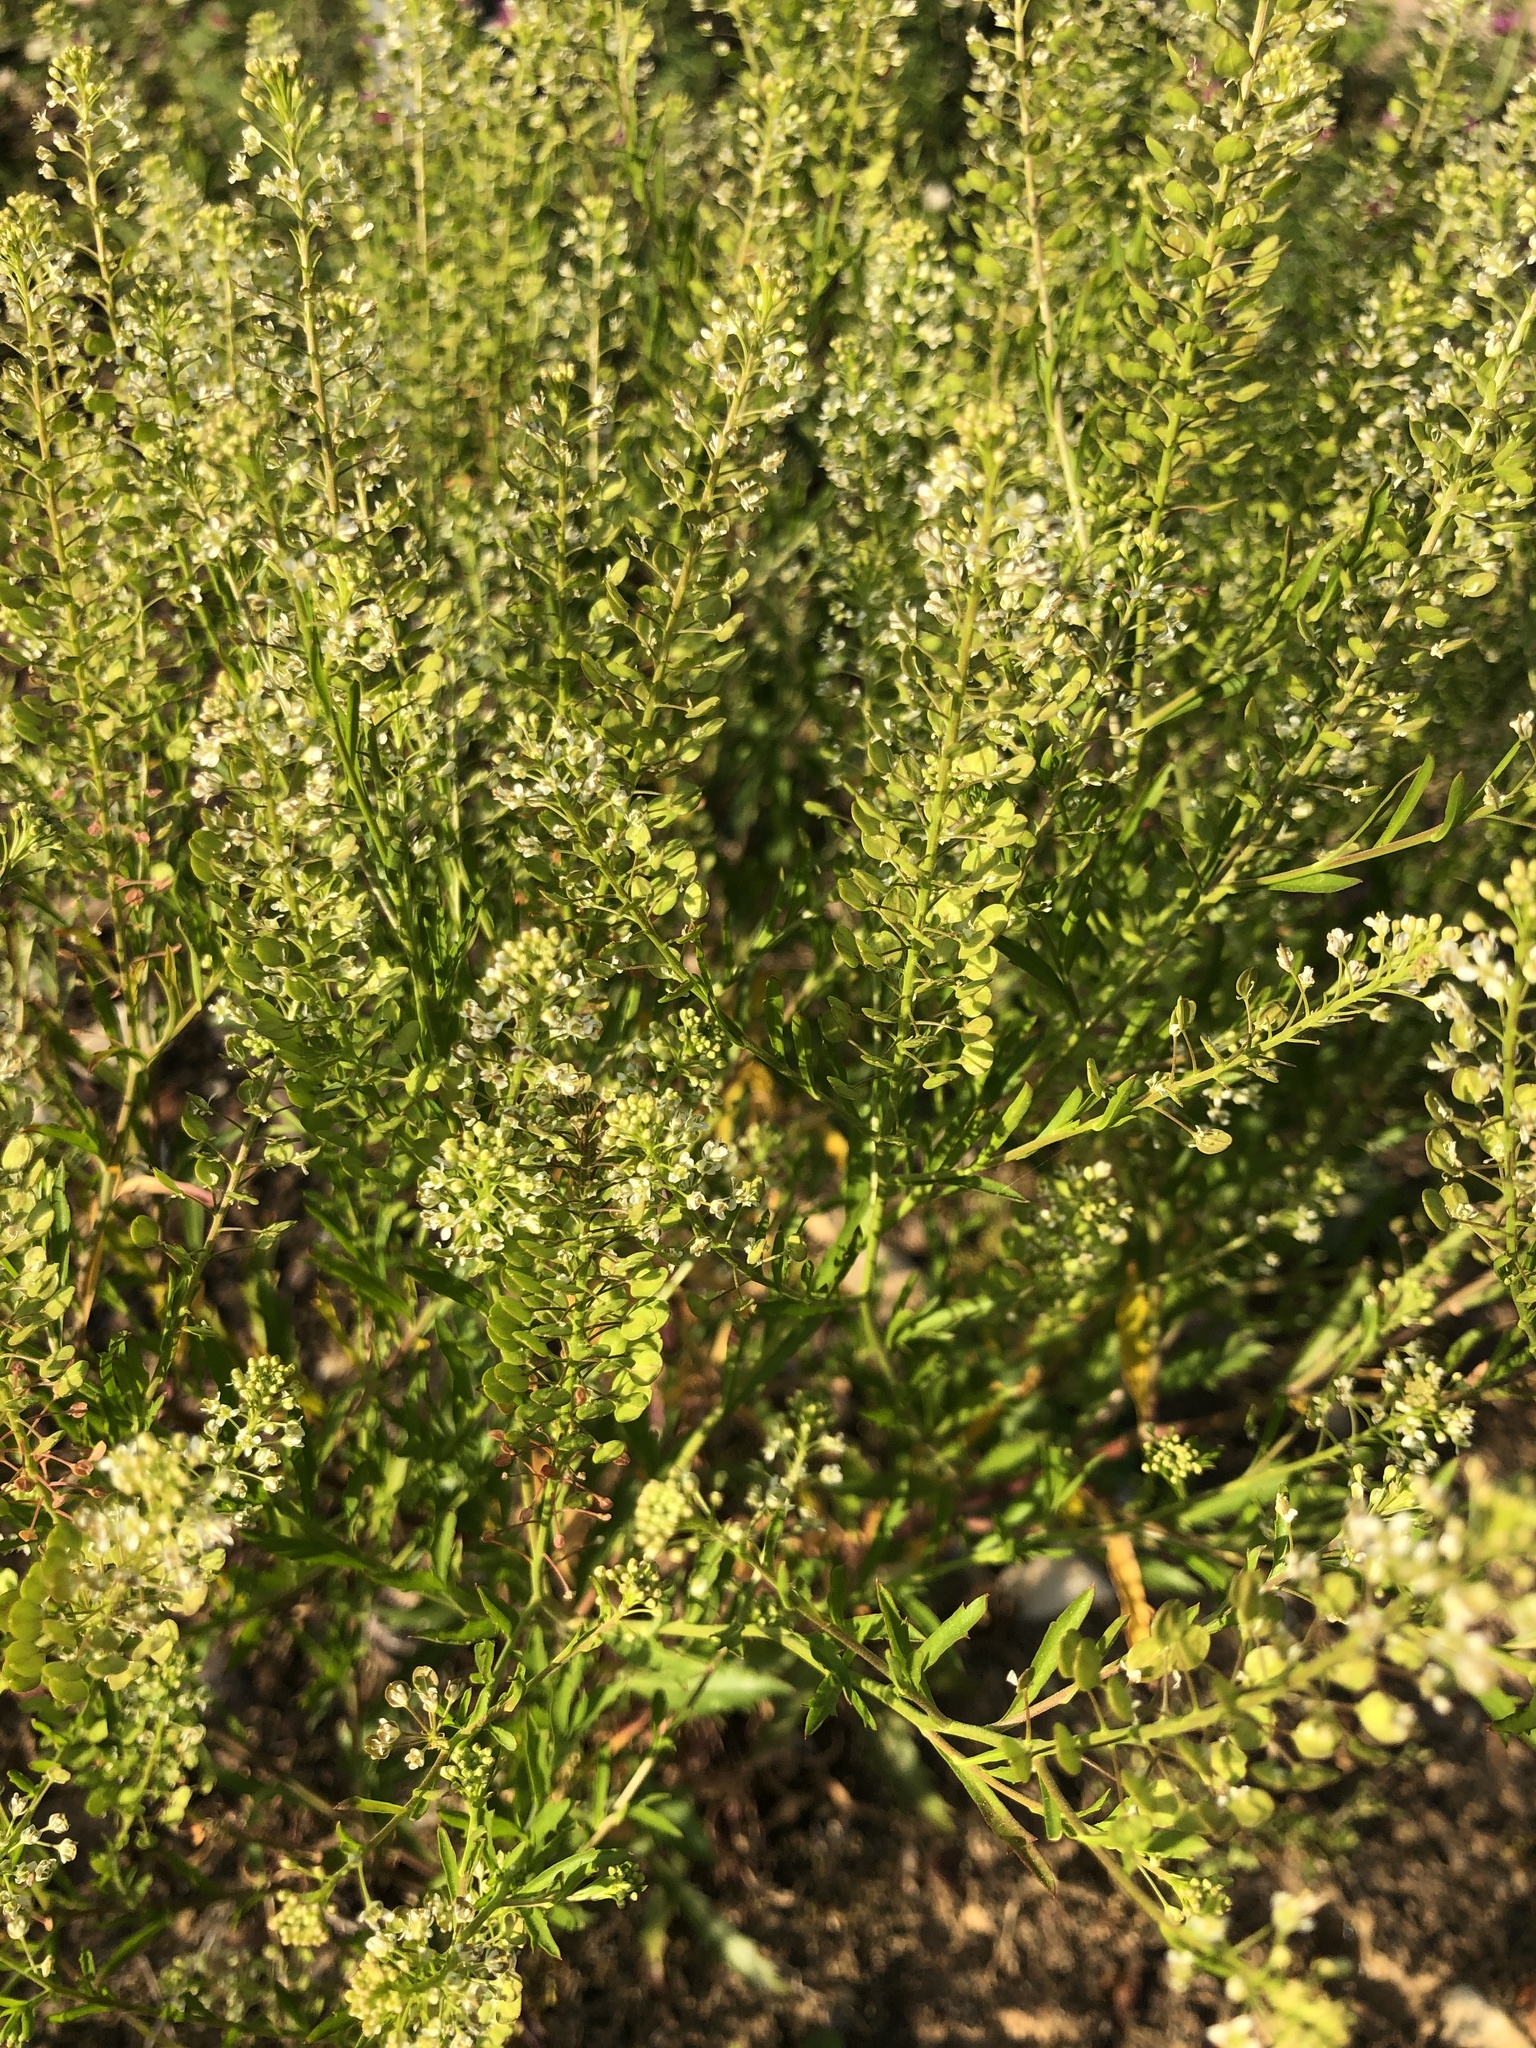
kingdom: Plantae
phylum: Tracheophyta
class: Magnoliopsida
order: Brassicales
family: Brassicaceae
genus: Lepidium
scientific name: Lepidium virginicum
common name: Least pepperwort
